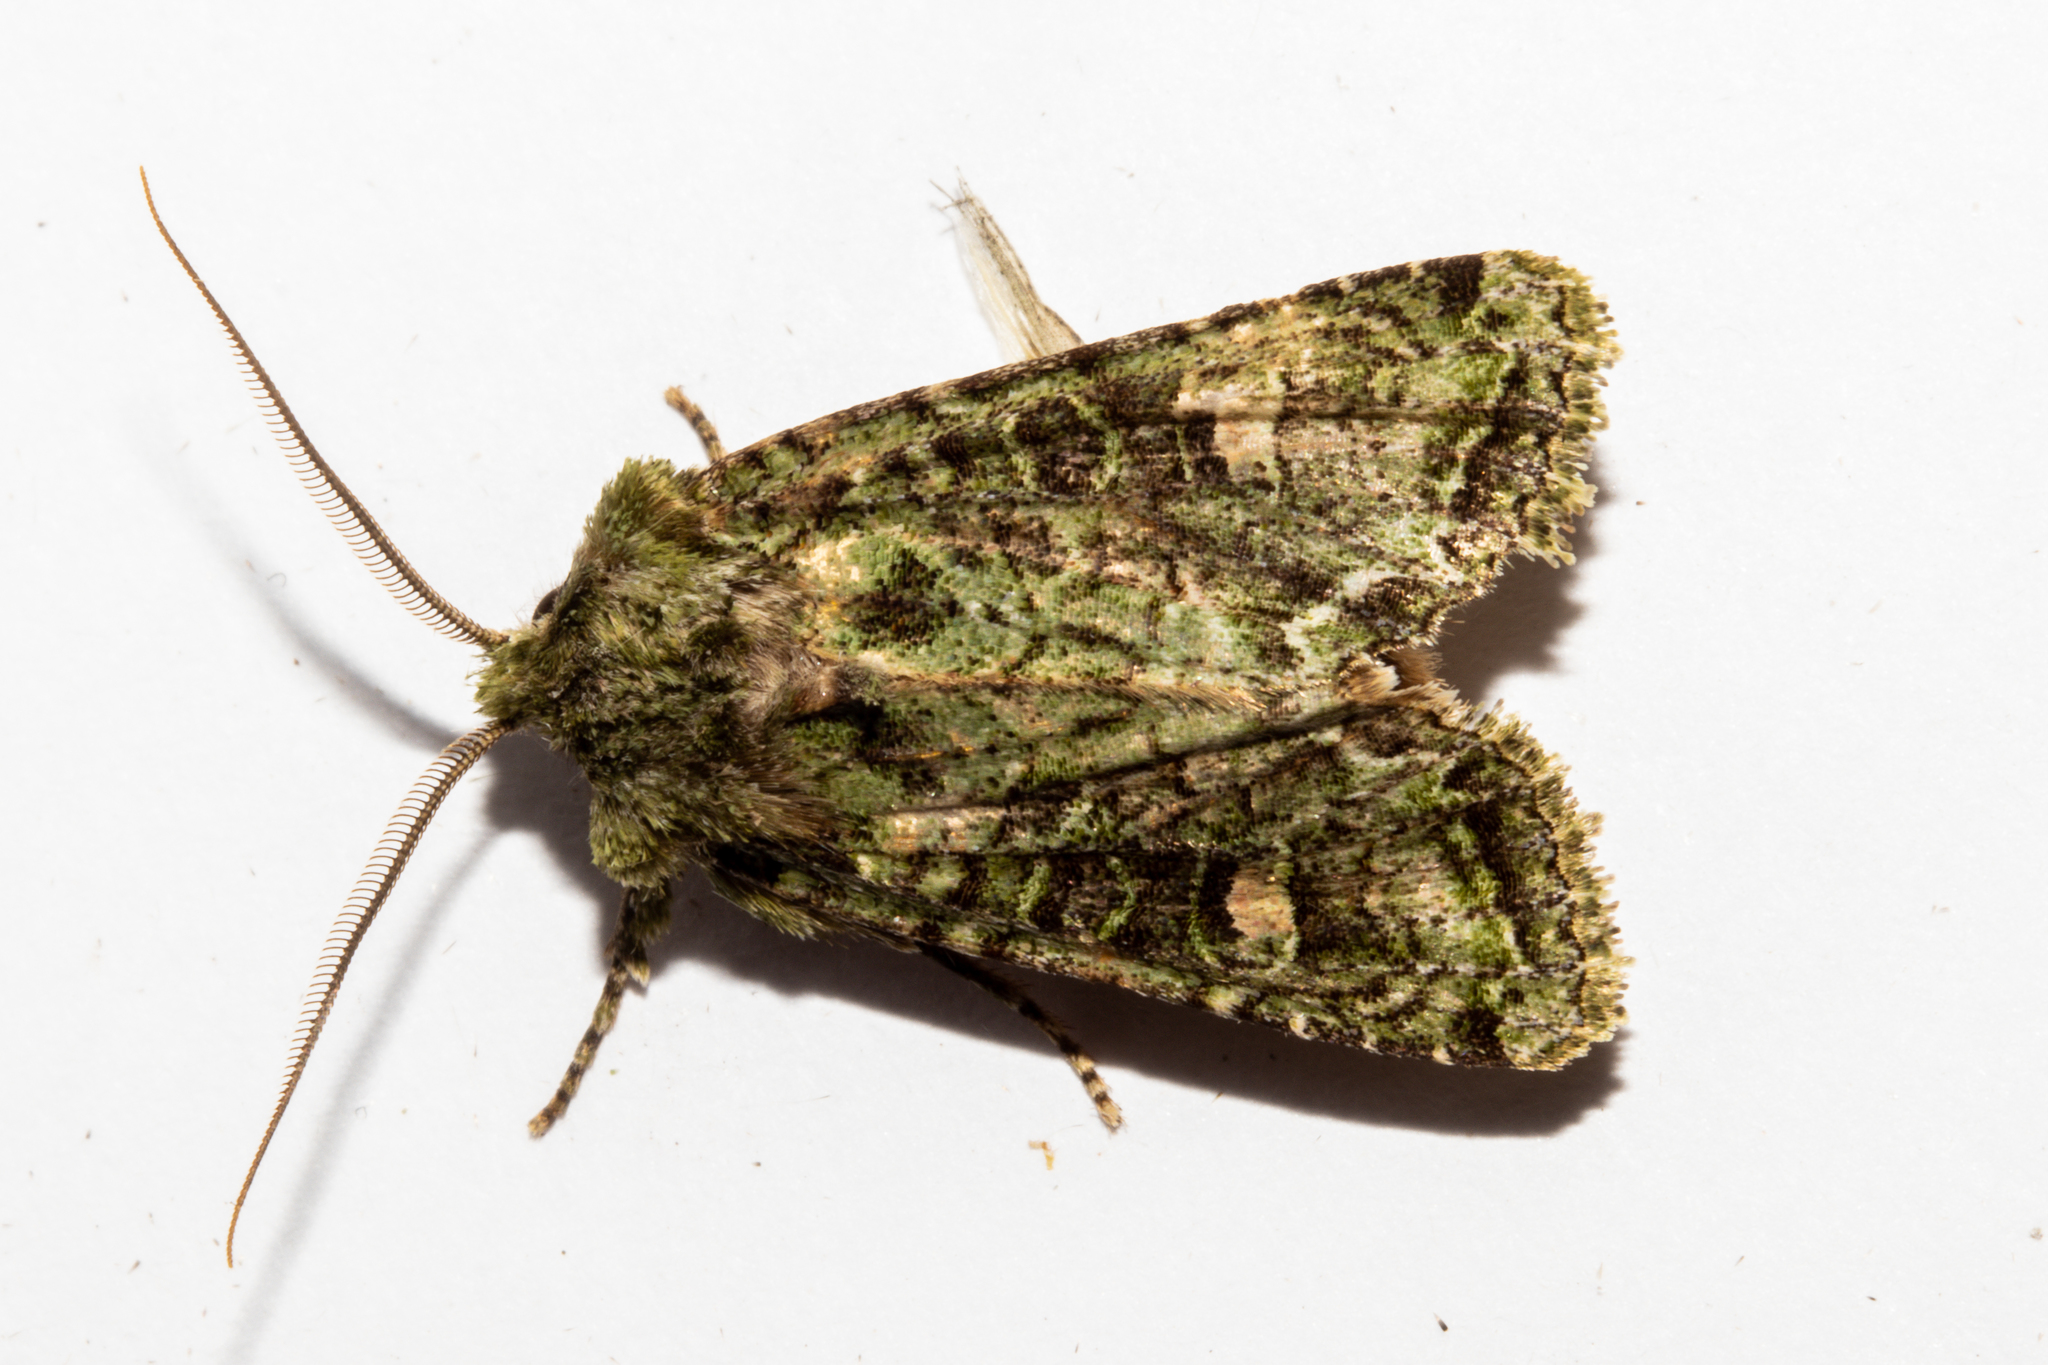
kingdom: Animalia
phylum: Arthropoda
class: Insecta
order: Lepidoptera
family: Noctuidae
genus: Ichneutica
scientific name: Ichneutica
